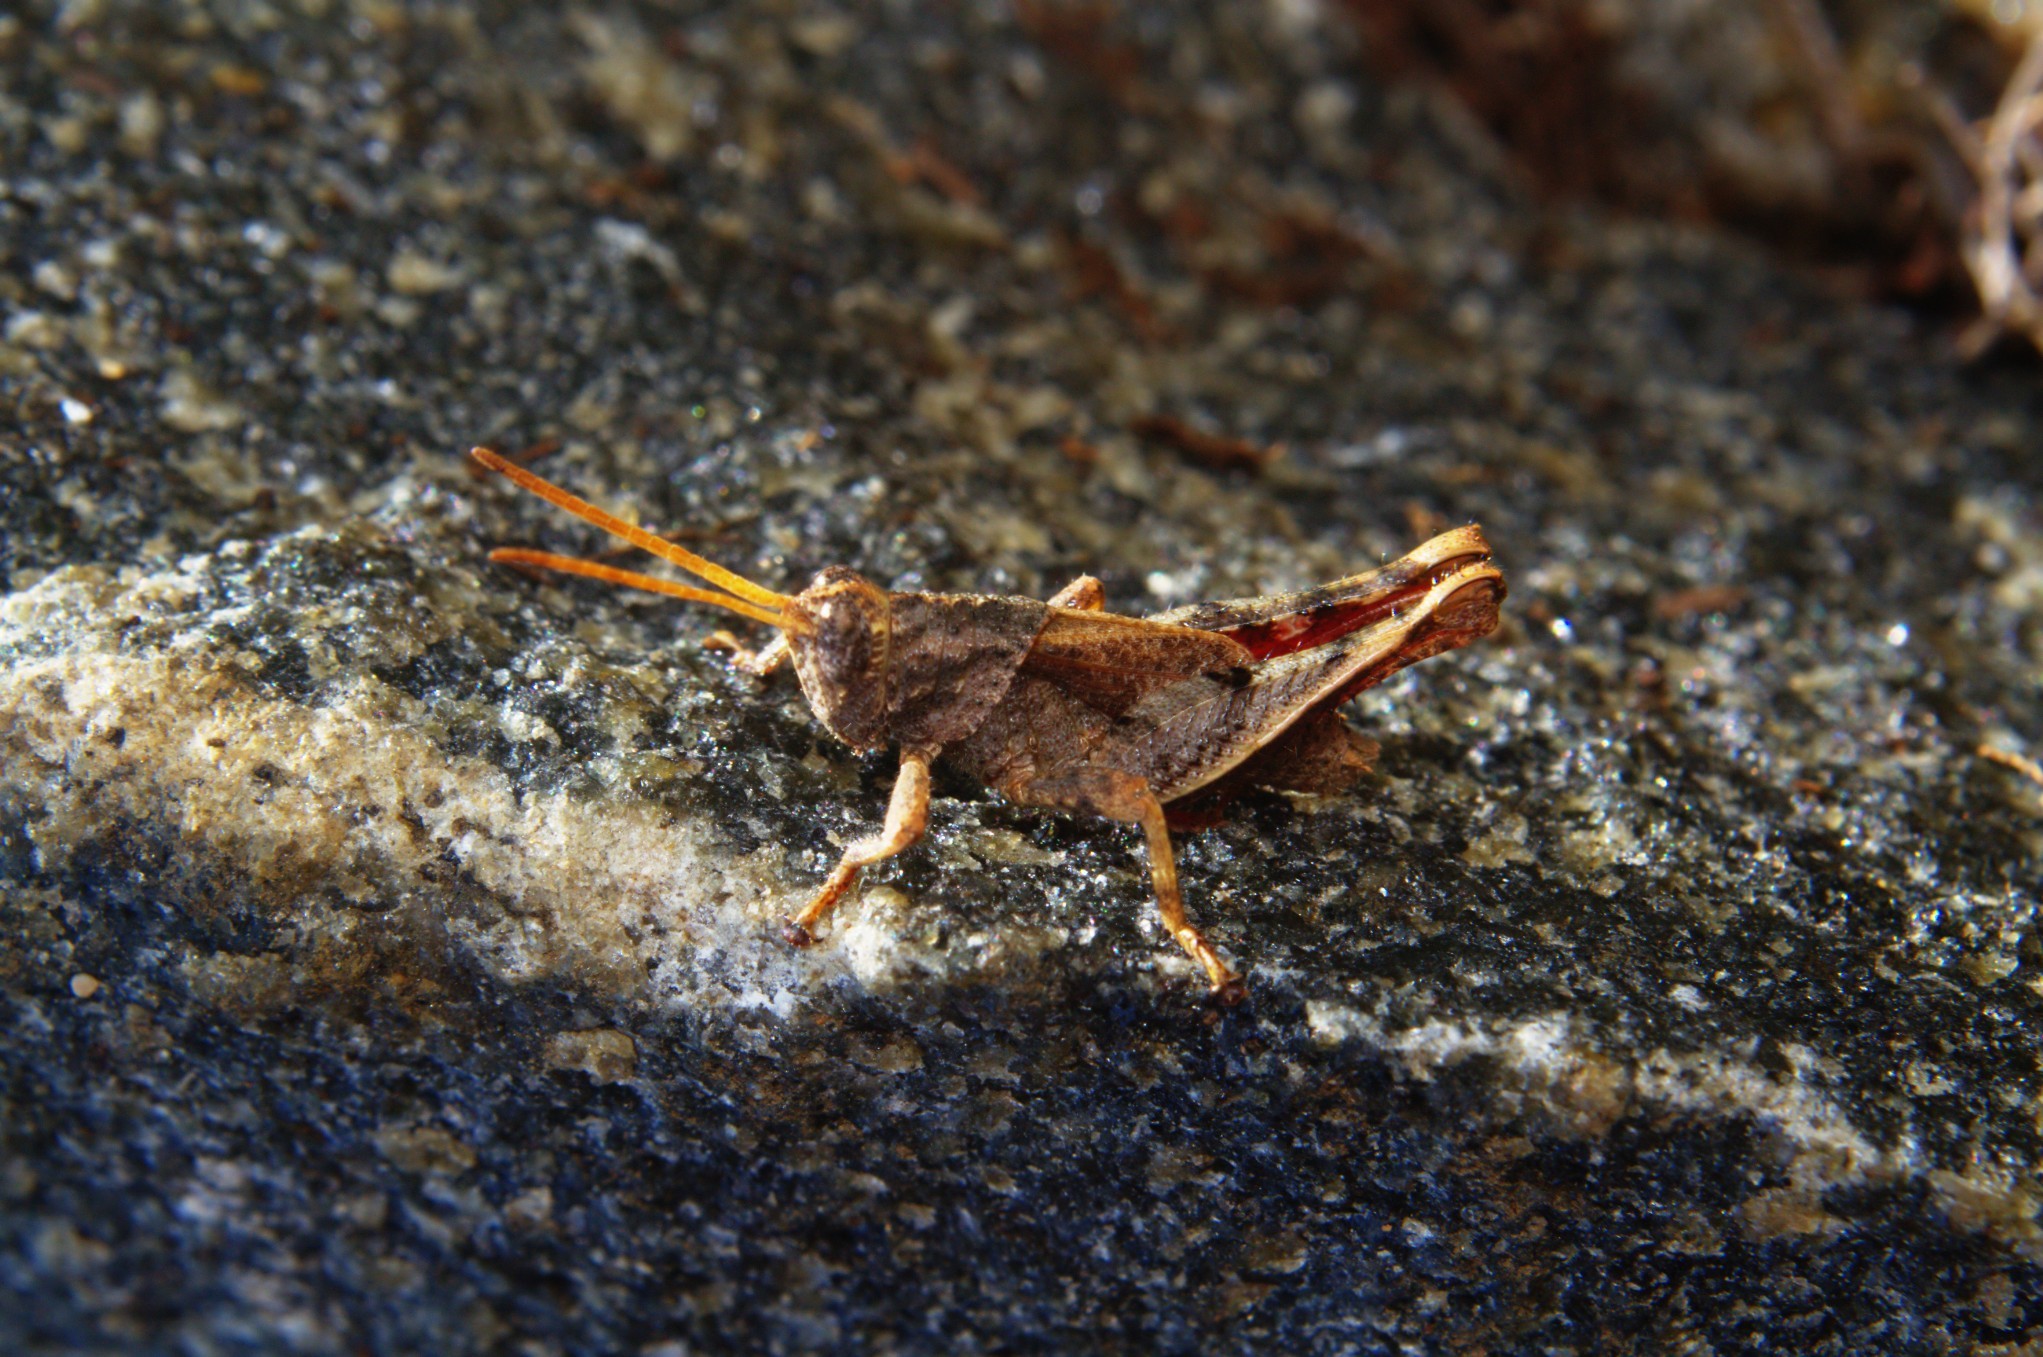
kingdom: Animalia
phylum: Arthropoda
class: Insecta
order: Orthoptera
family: Acrididae
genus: Coptacrella
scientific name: Coptacrella martini
